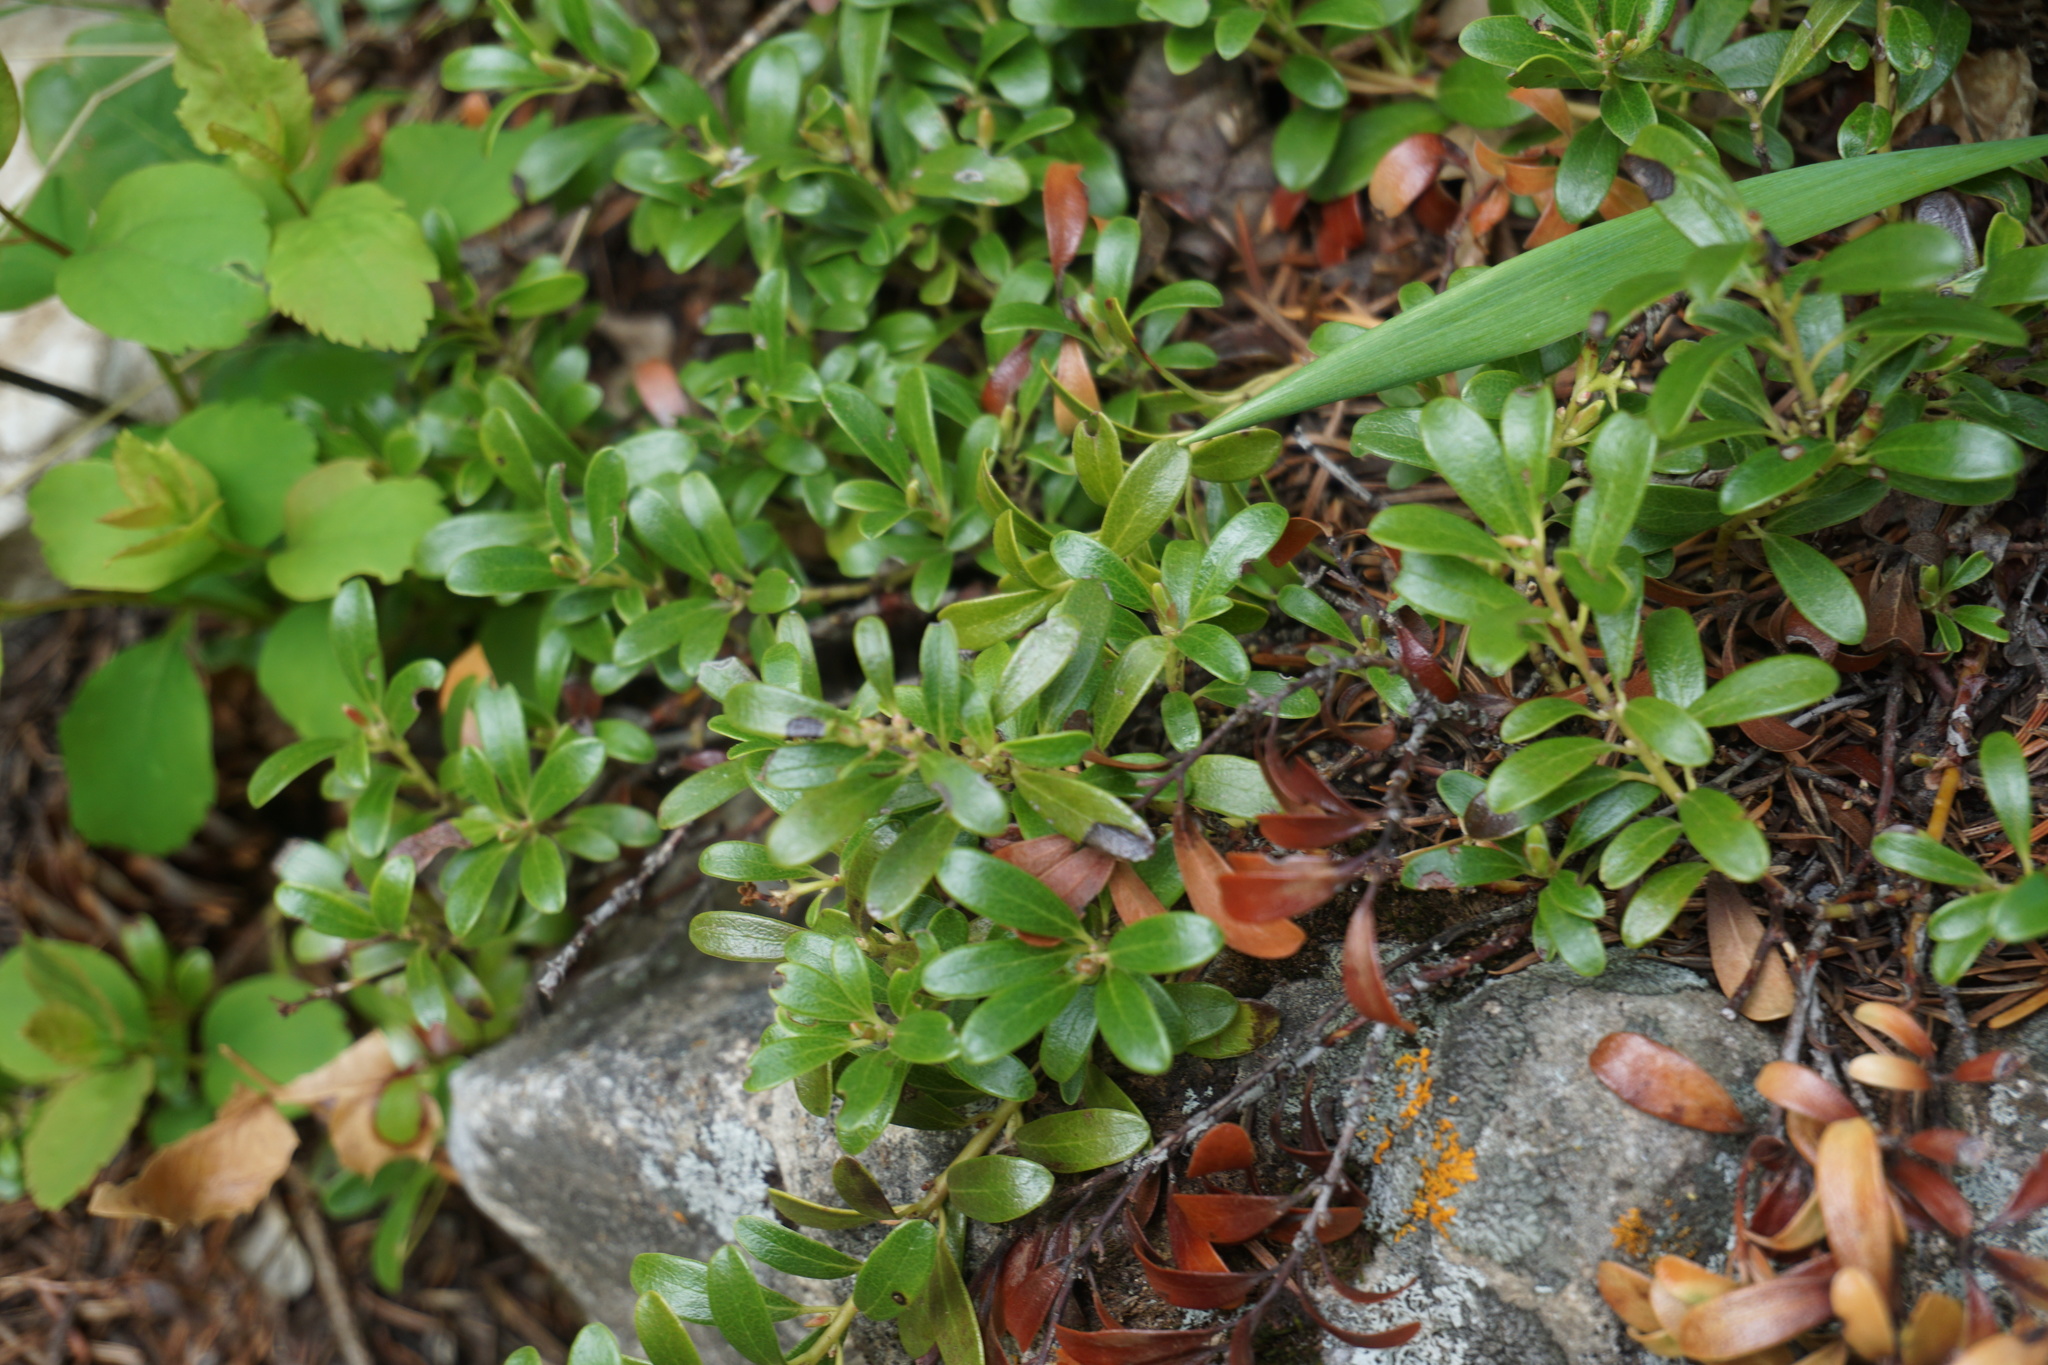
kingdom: Plantae
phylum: Tracheophyta
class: Magnoliopsida
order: Ericales
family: Ericaceae
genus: Arctostaphylos
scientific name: Arctostaphylos uva-ursi
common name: Bearberry
